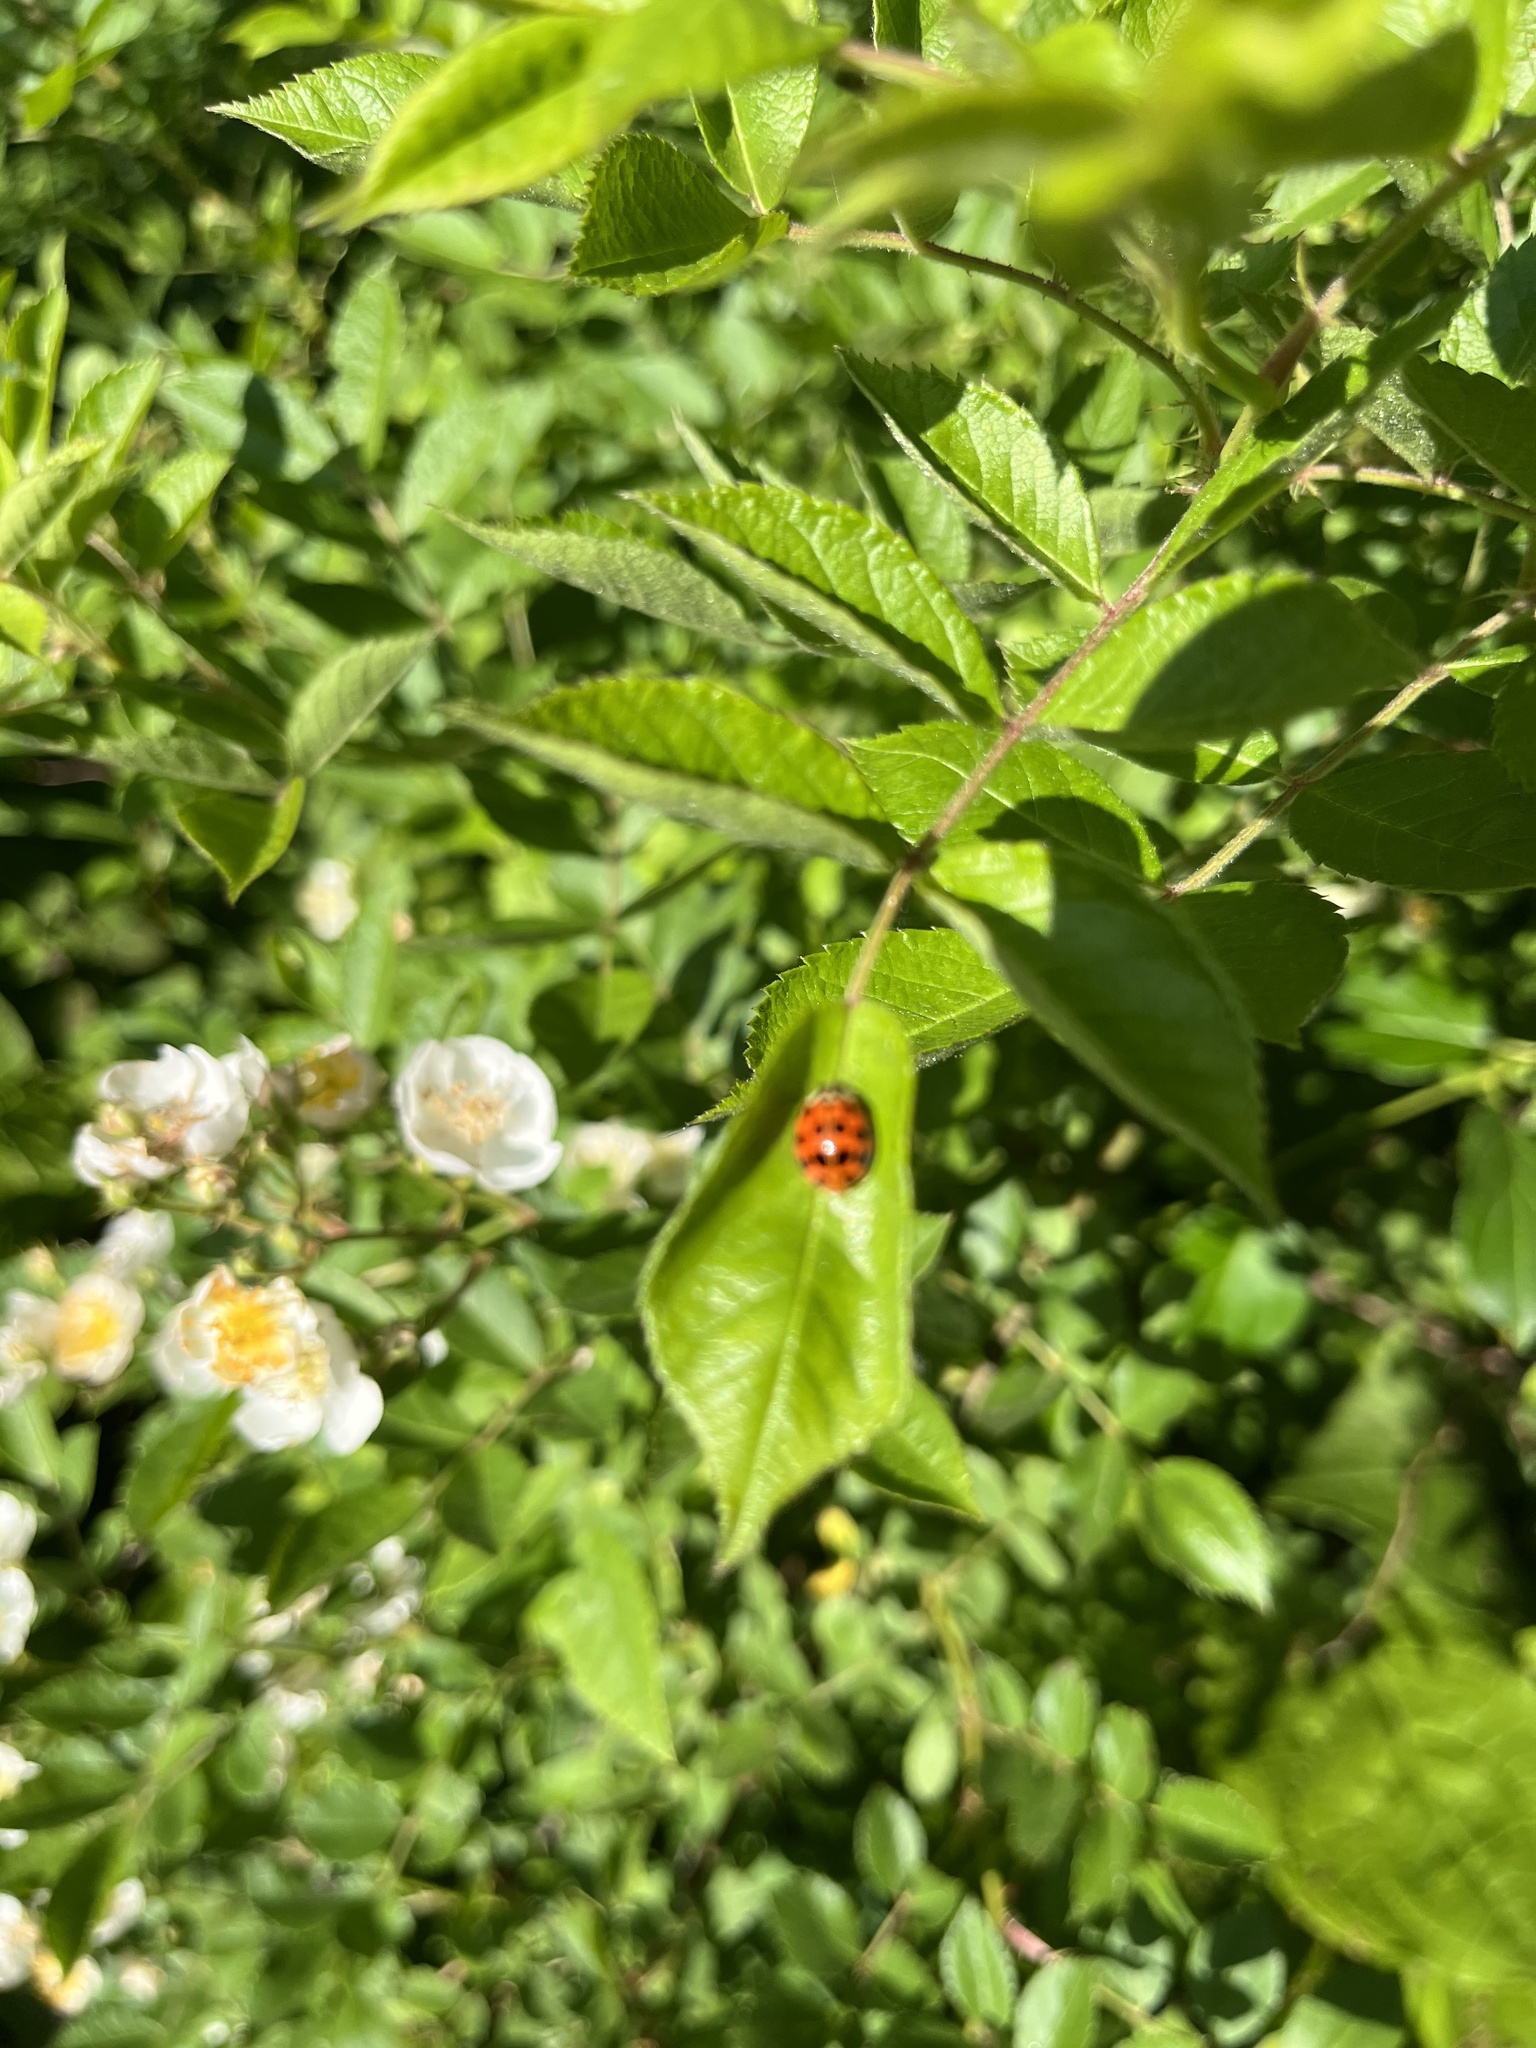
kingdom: Animalia
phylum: Arthropoda
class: Insecta
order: Coleoptera
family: Coccinellidae
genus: Harmonia
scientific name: Harmonia axyridis
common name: Harlequin ladybird
